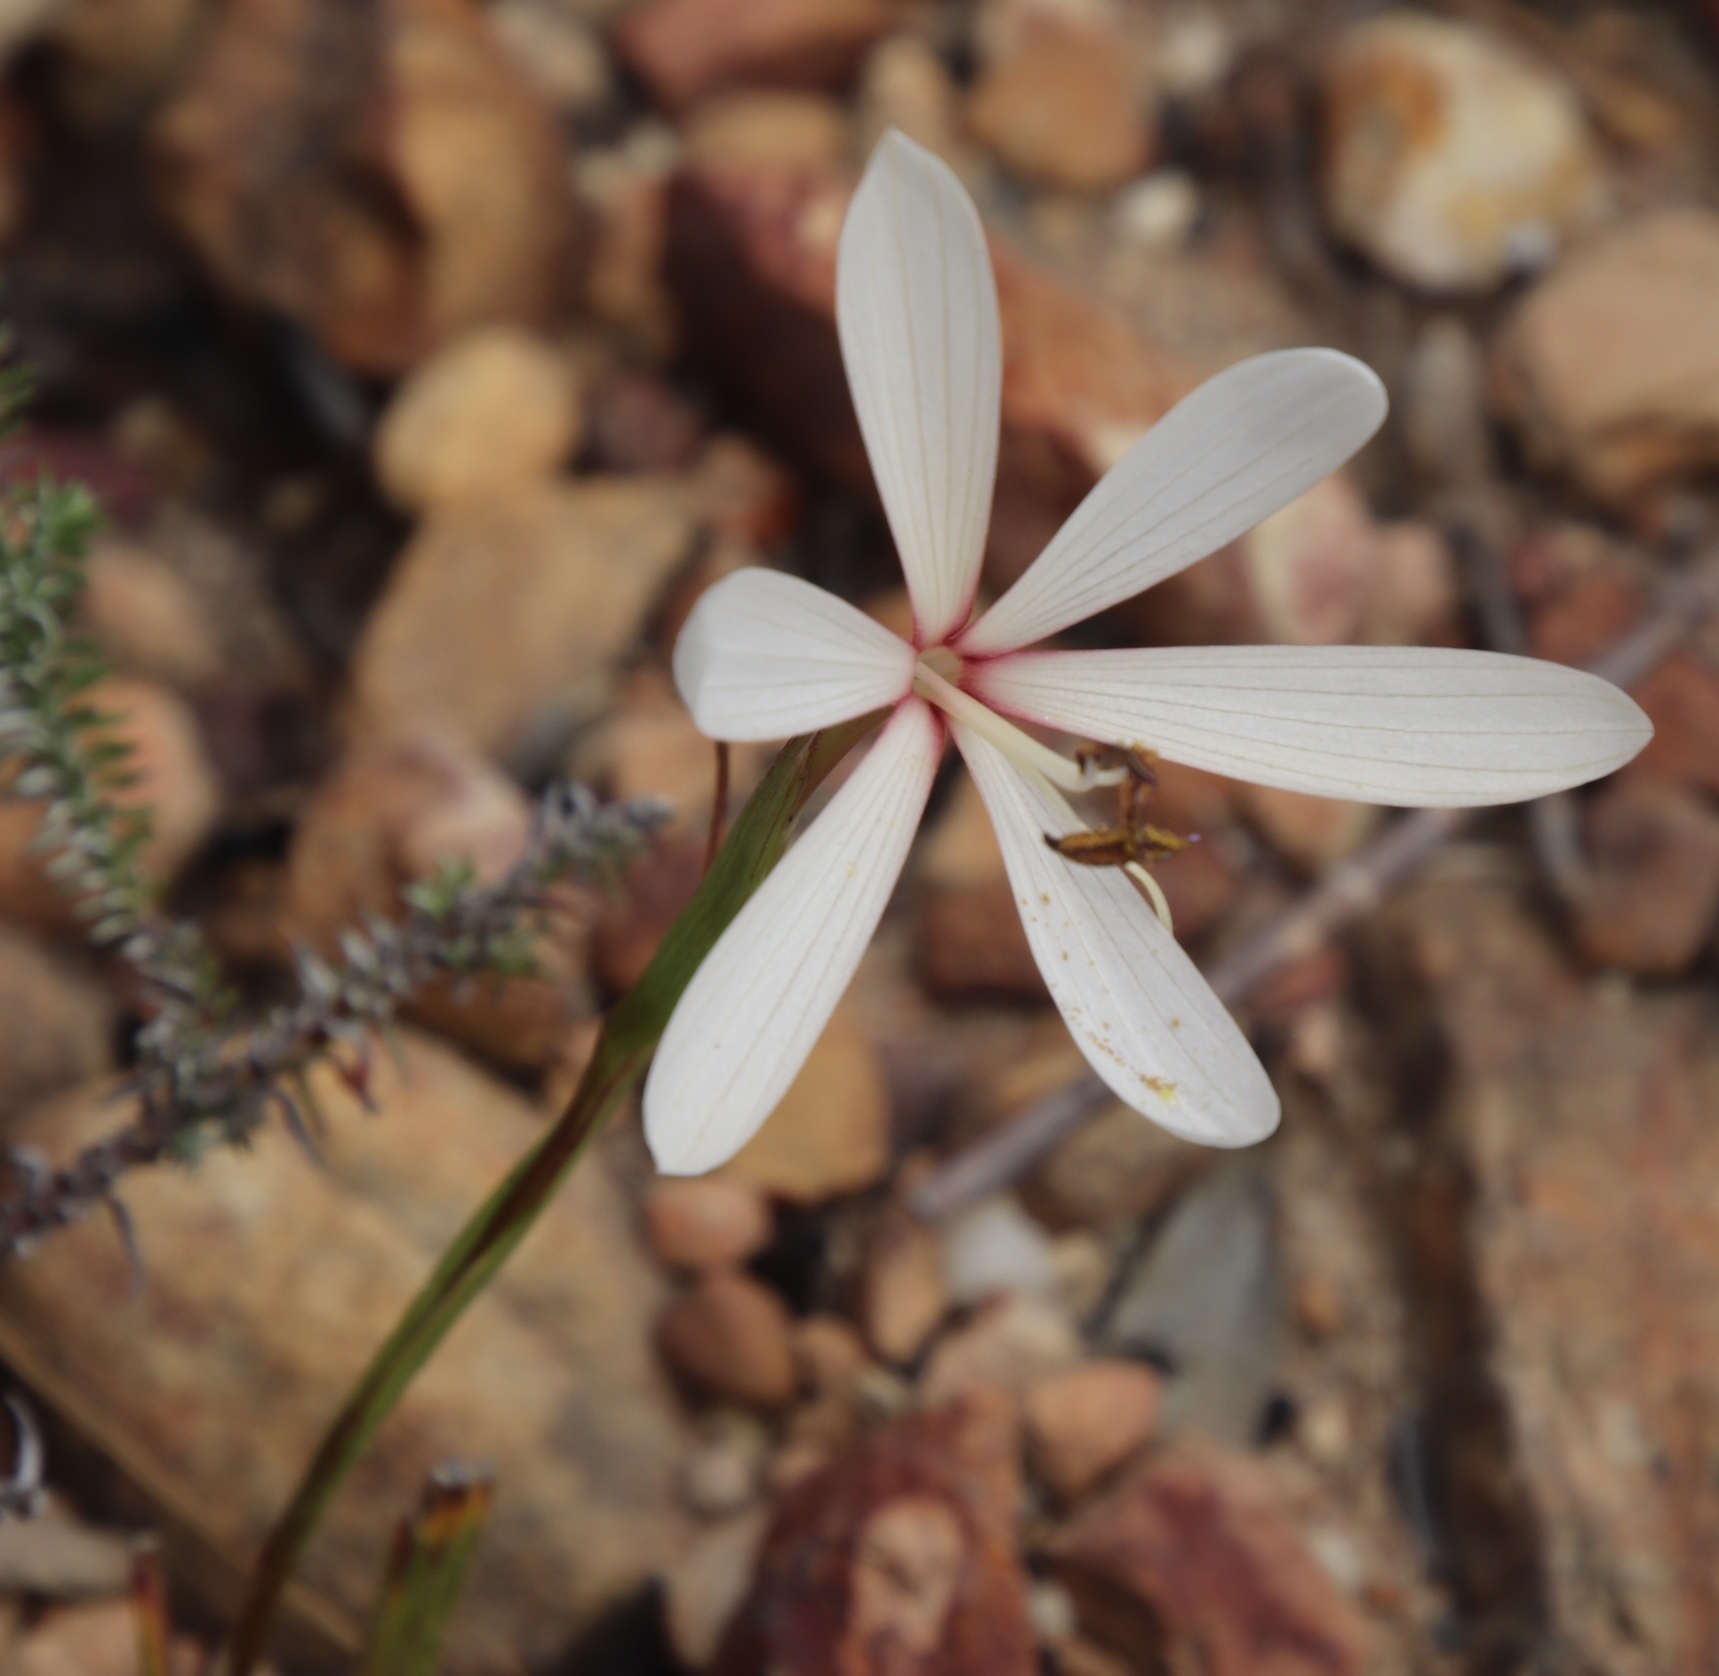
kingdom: Plantae
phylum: Tracheophyta
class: Liliopsida
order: Asparagales
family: Iridaceae
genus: Geissorhiza
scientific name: Geissorhiza exscapa
